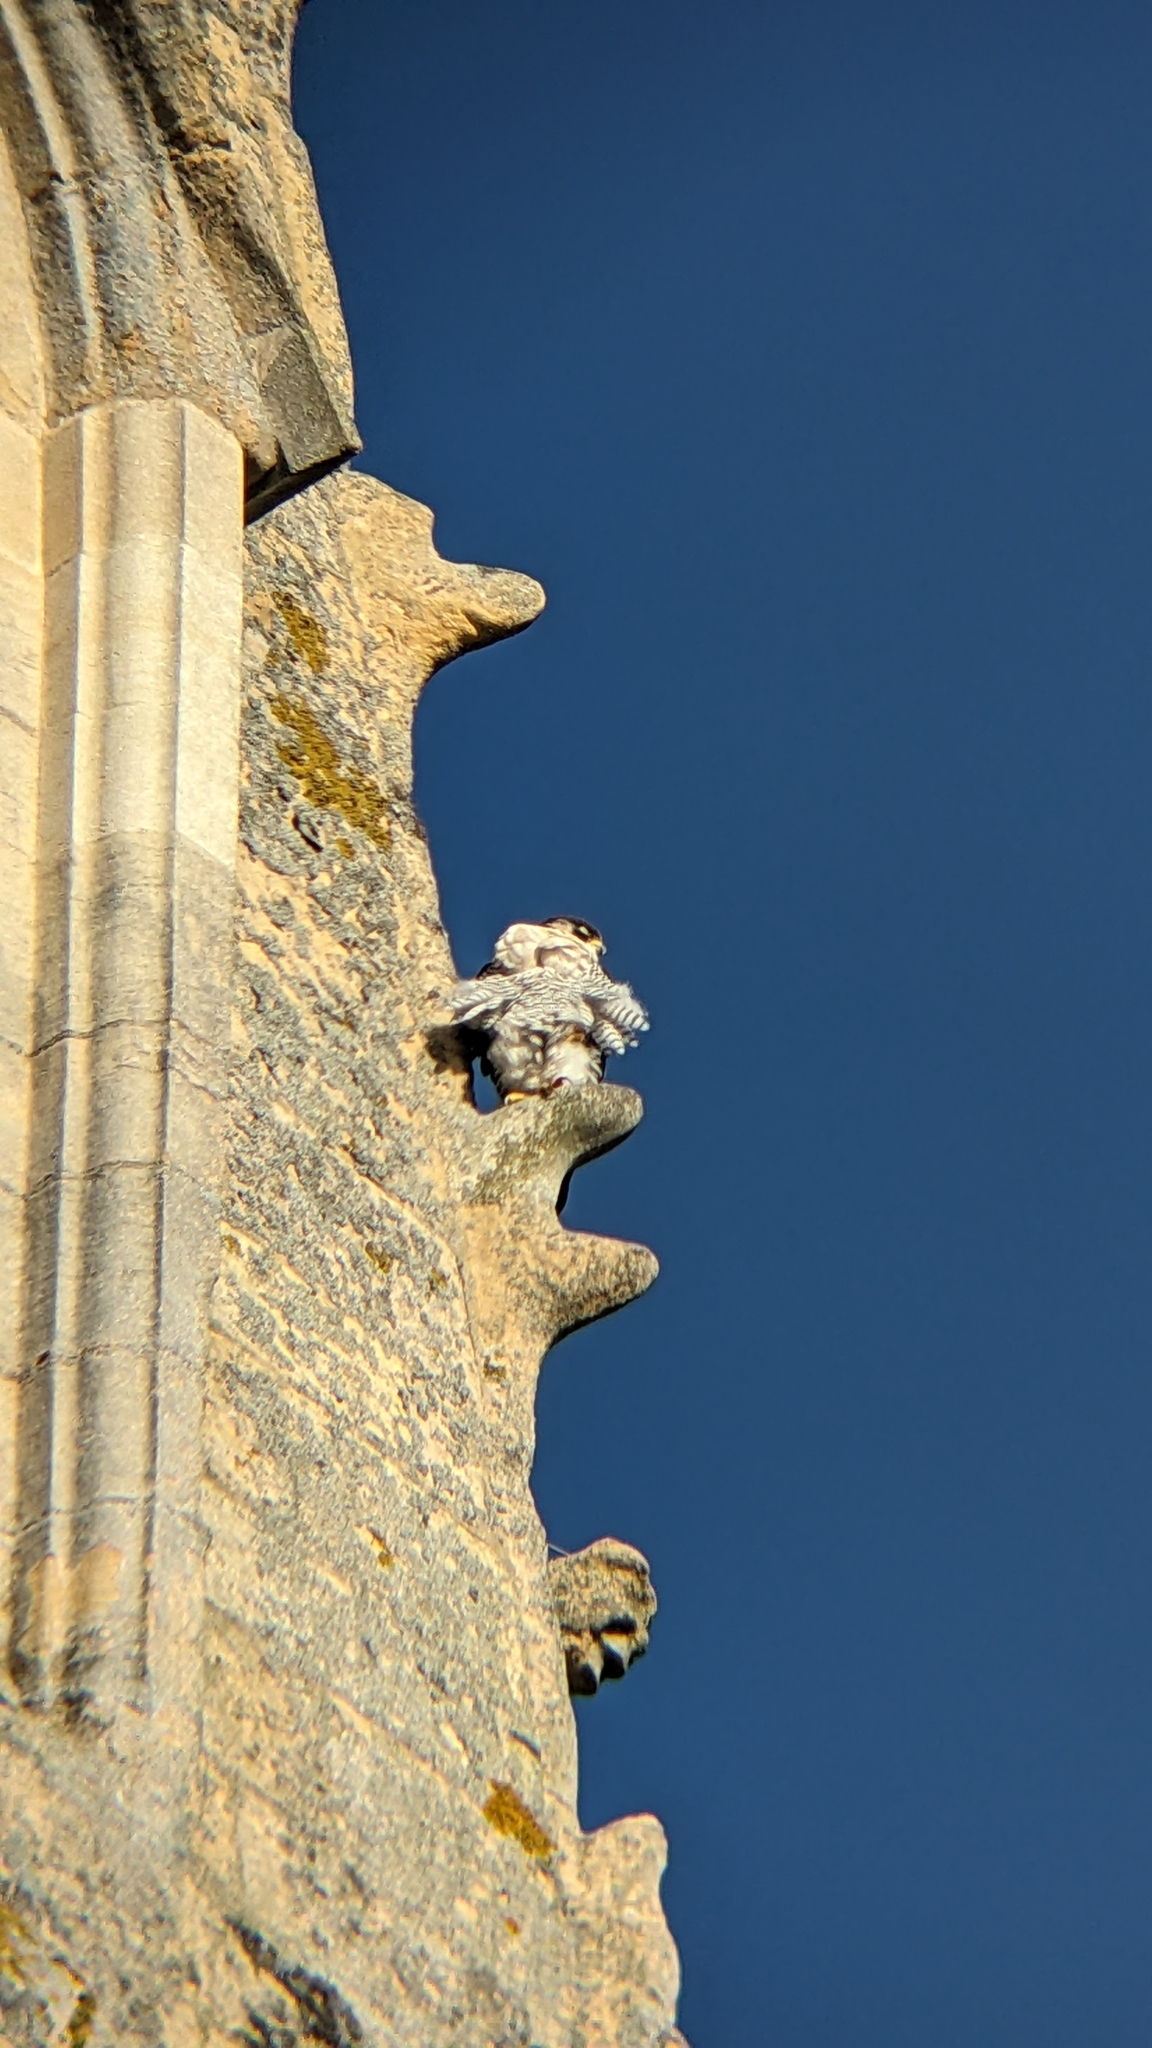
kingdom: Animalia
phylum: Chordata
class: Aves
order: Falconiformes
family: Falconidae
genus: Falco
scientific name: Falco peregrinus
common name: Peregrine falcon
